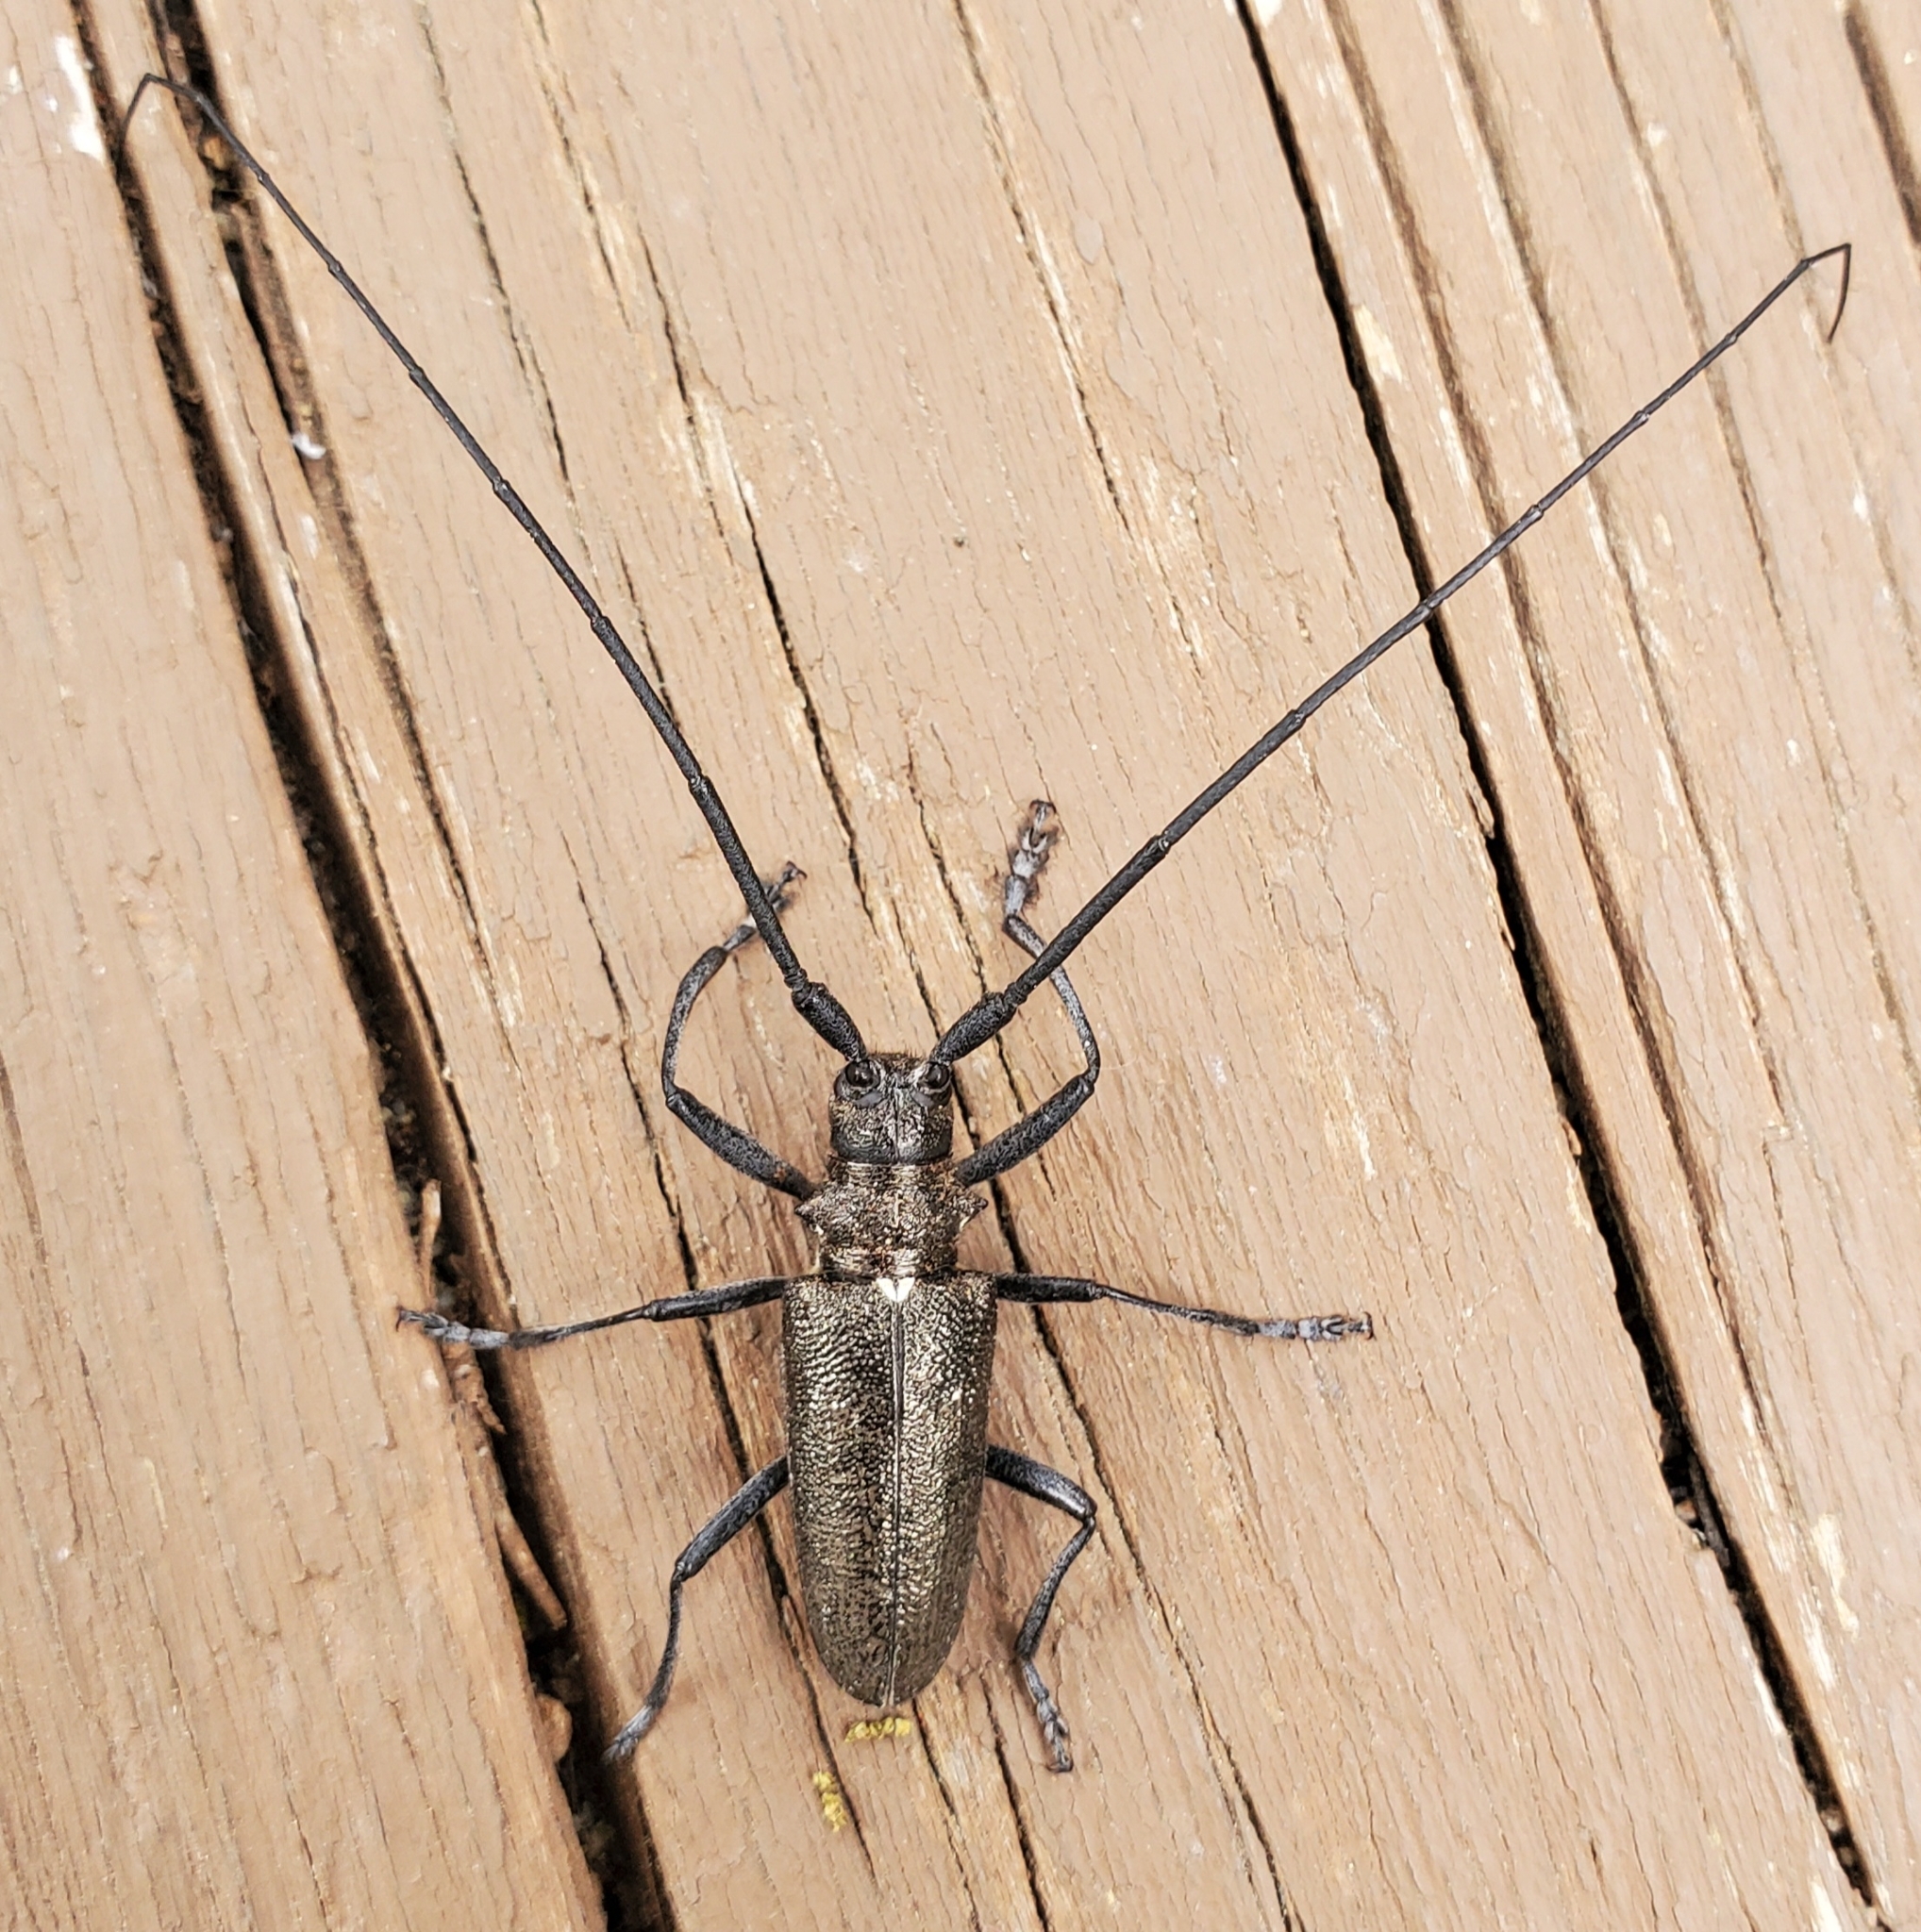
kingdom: Animalia
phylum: Arthropoda
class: Insecta
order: Coleoptera
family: Cerambycidae
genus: Monochamus
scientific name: Monochamus scutellatus
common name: White-spotted sawyer beetle
